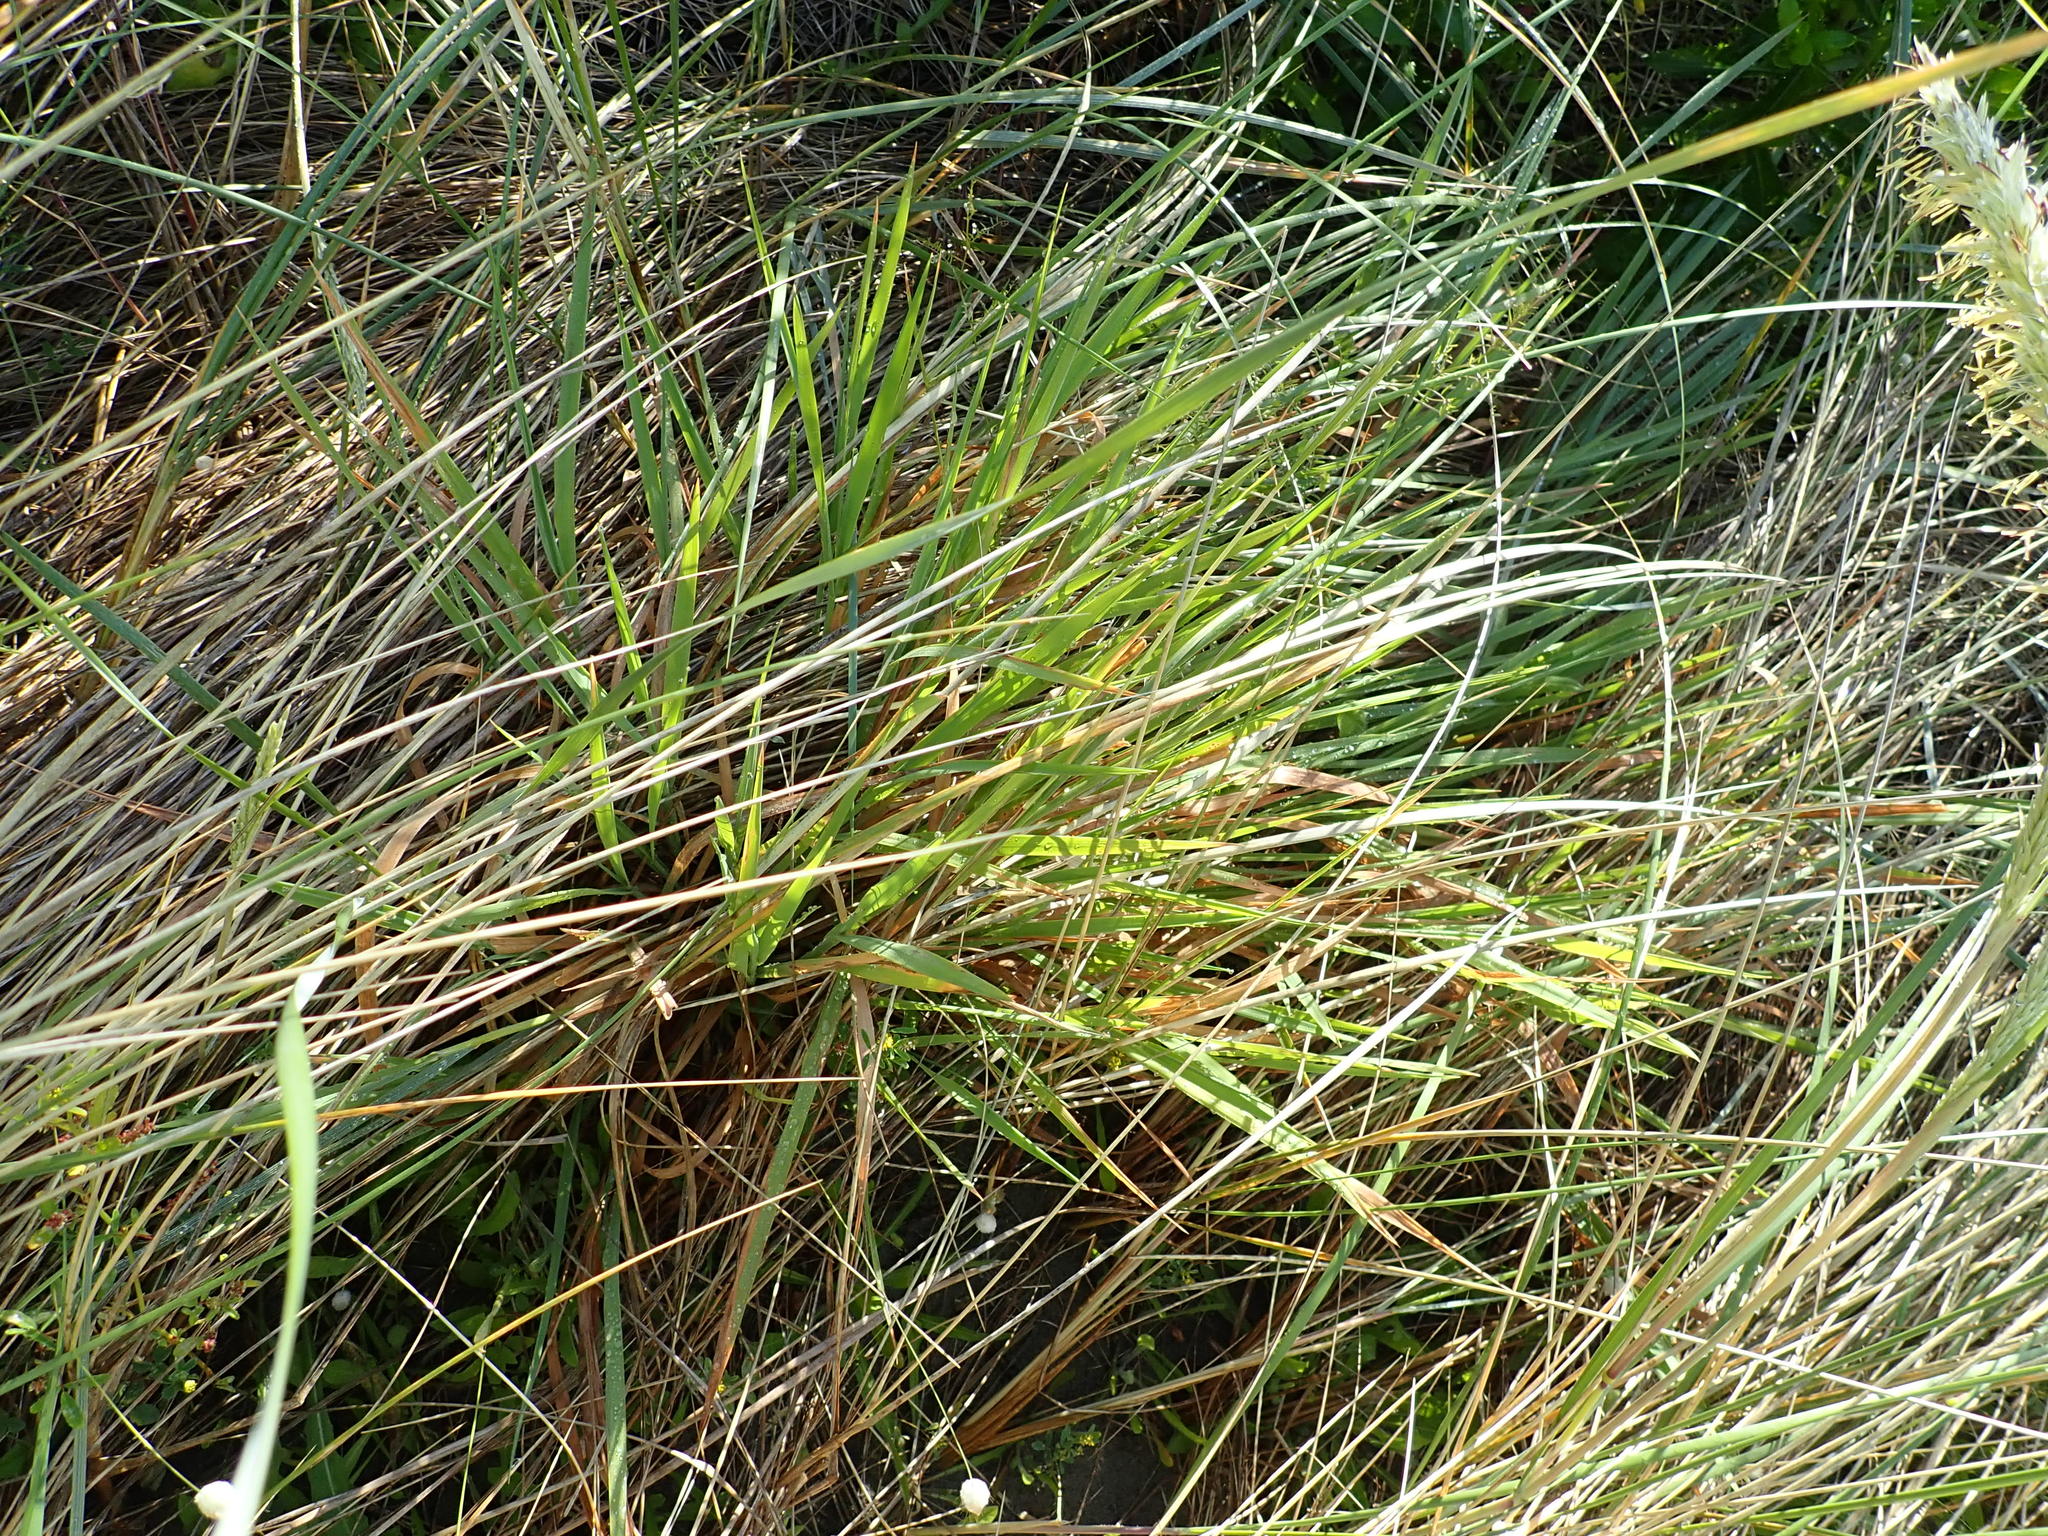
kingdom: Plantae
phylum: Tracheophyta
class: Liliopsida
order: Poales
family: Poaceae
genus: Lachnagrostis
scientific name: Lachnagrostis billardierei
